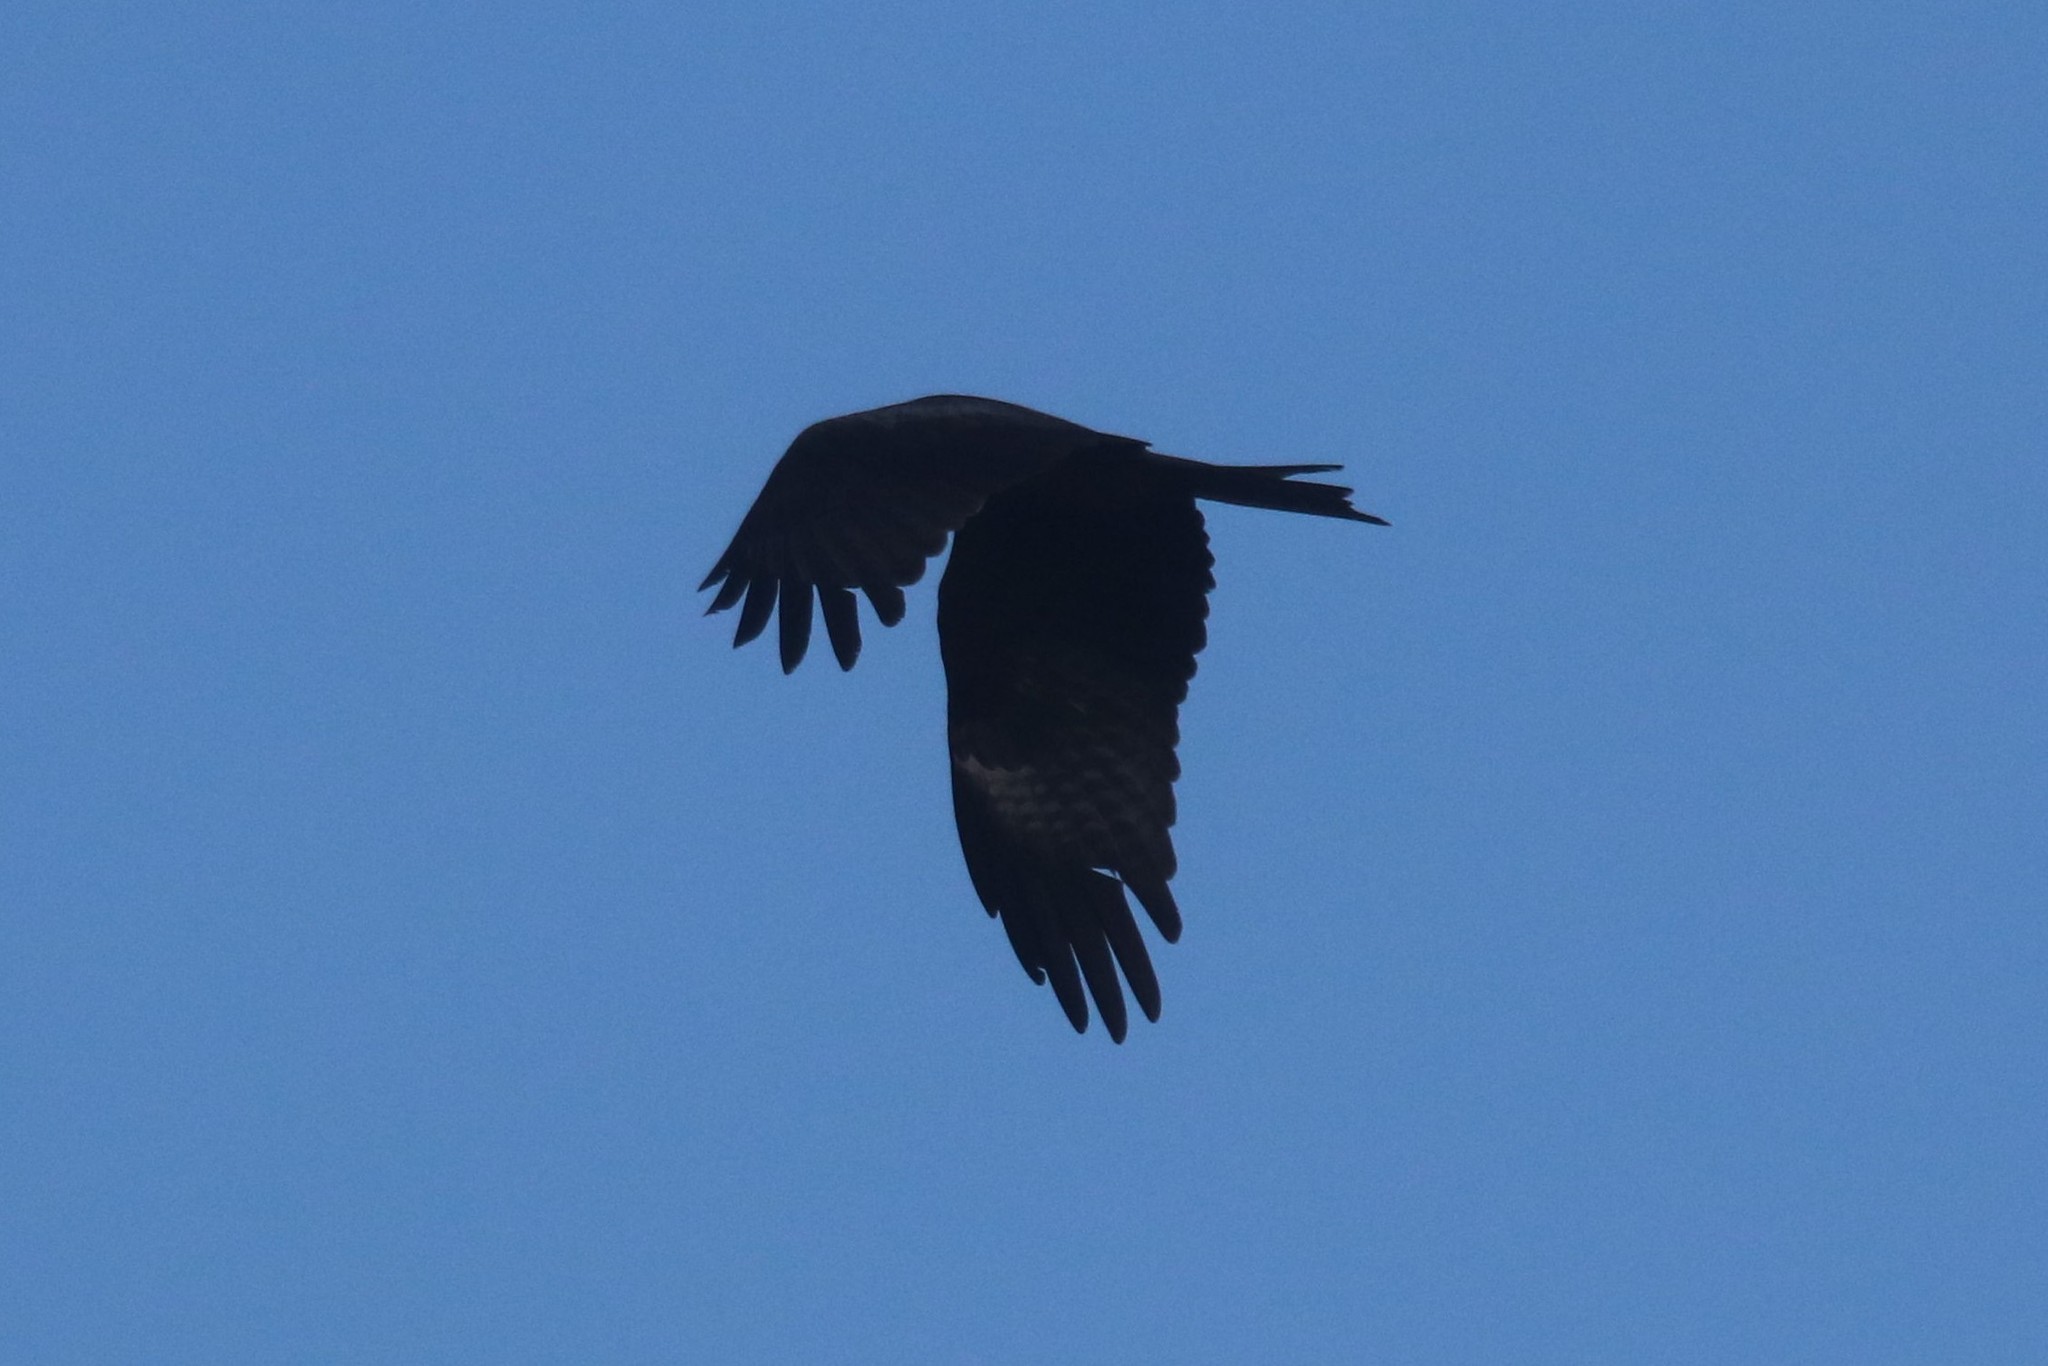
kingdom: Animalia
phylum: Chordata
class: Aves
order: Accipitriformes
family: Accipitridae
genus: Milvus
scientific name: Milvus migrans
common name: Black kite
